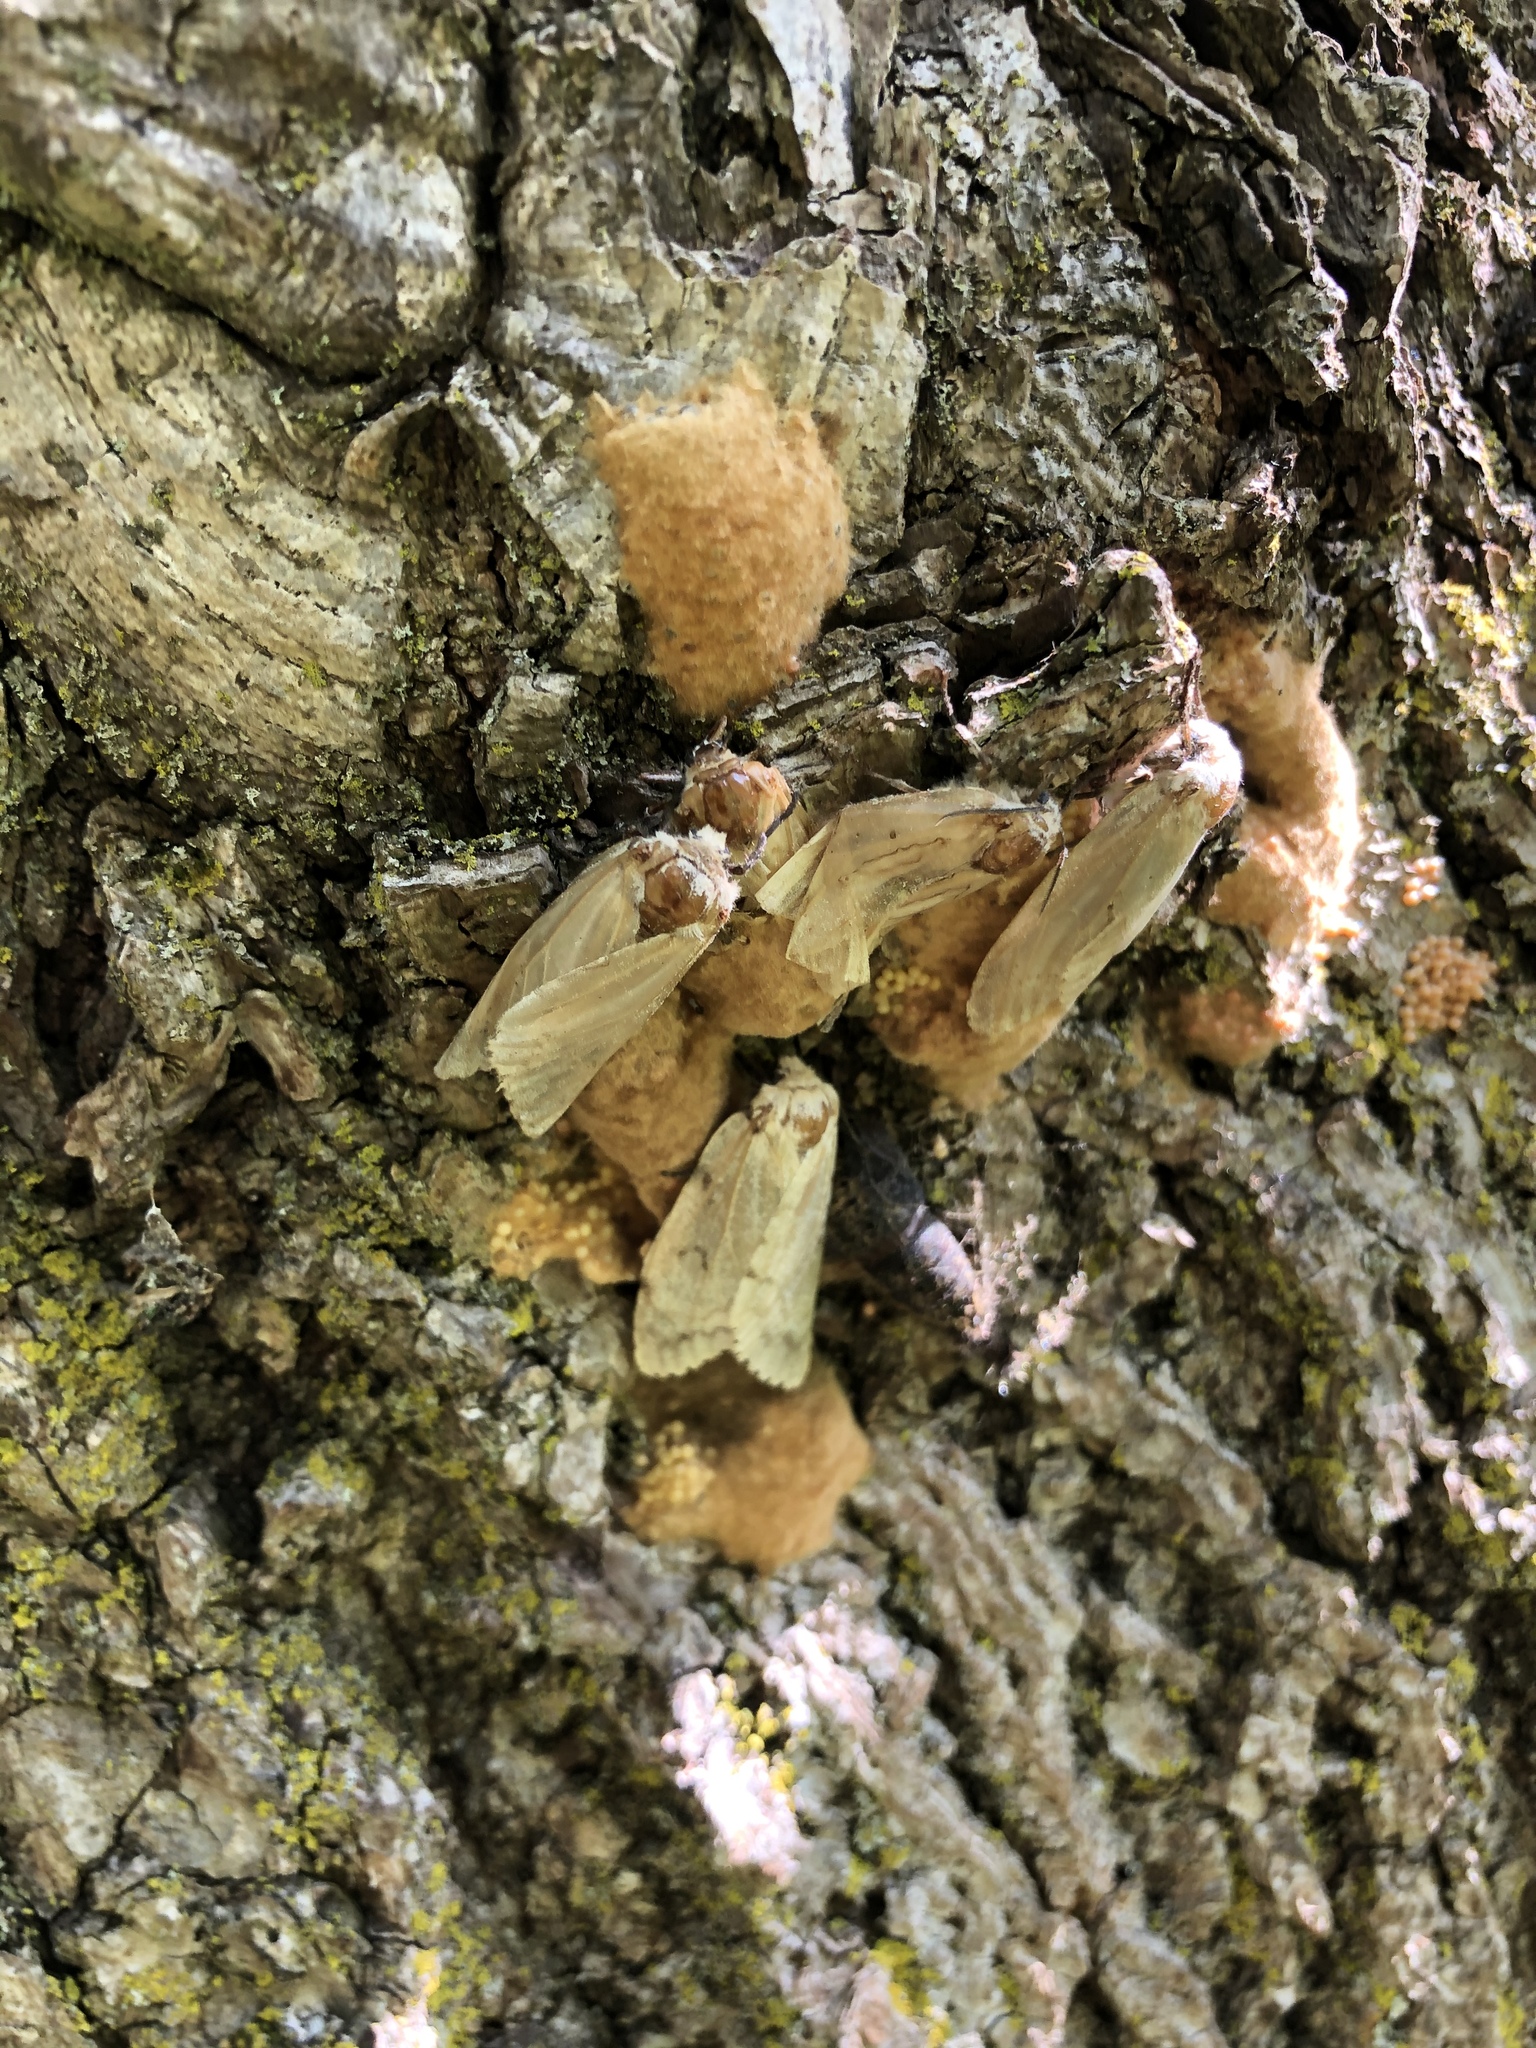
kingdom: Animalia
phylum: Arthropoda
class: Insecta
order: Lepidoptera
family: Erebidae
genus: Lymantria
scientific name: Lymantria dispar
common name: Gypsy moth
